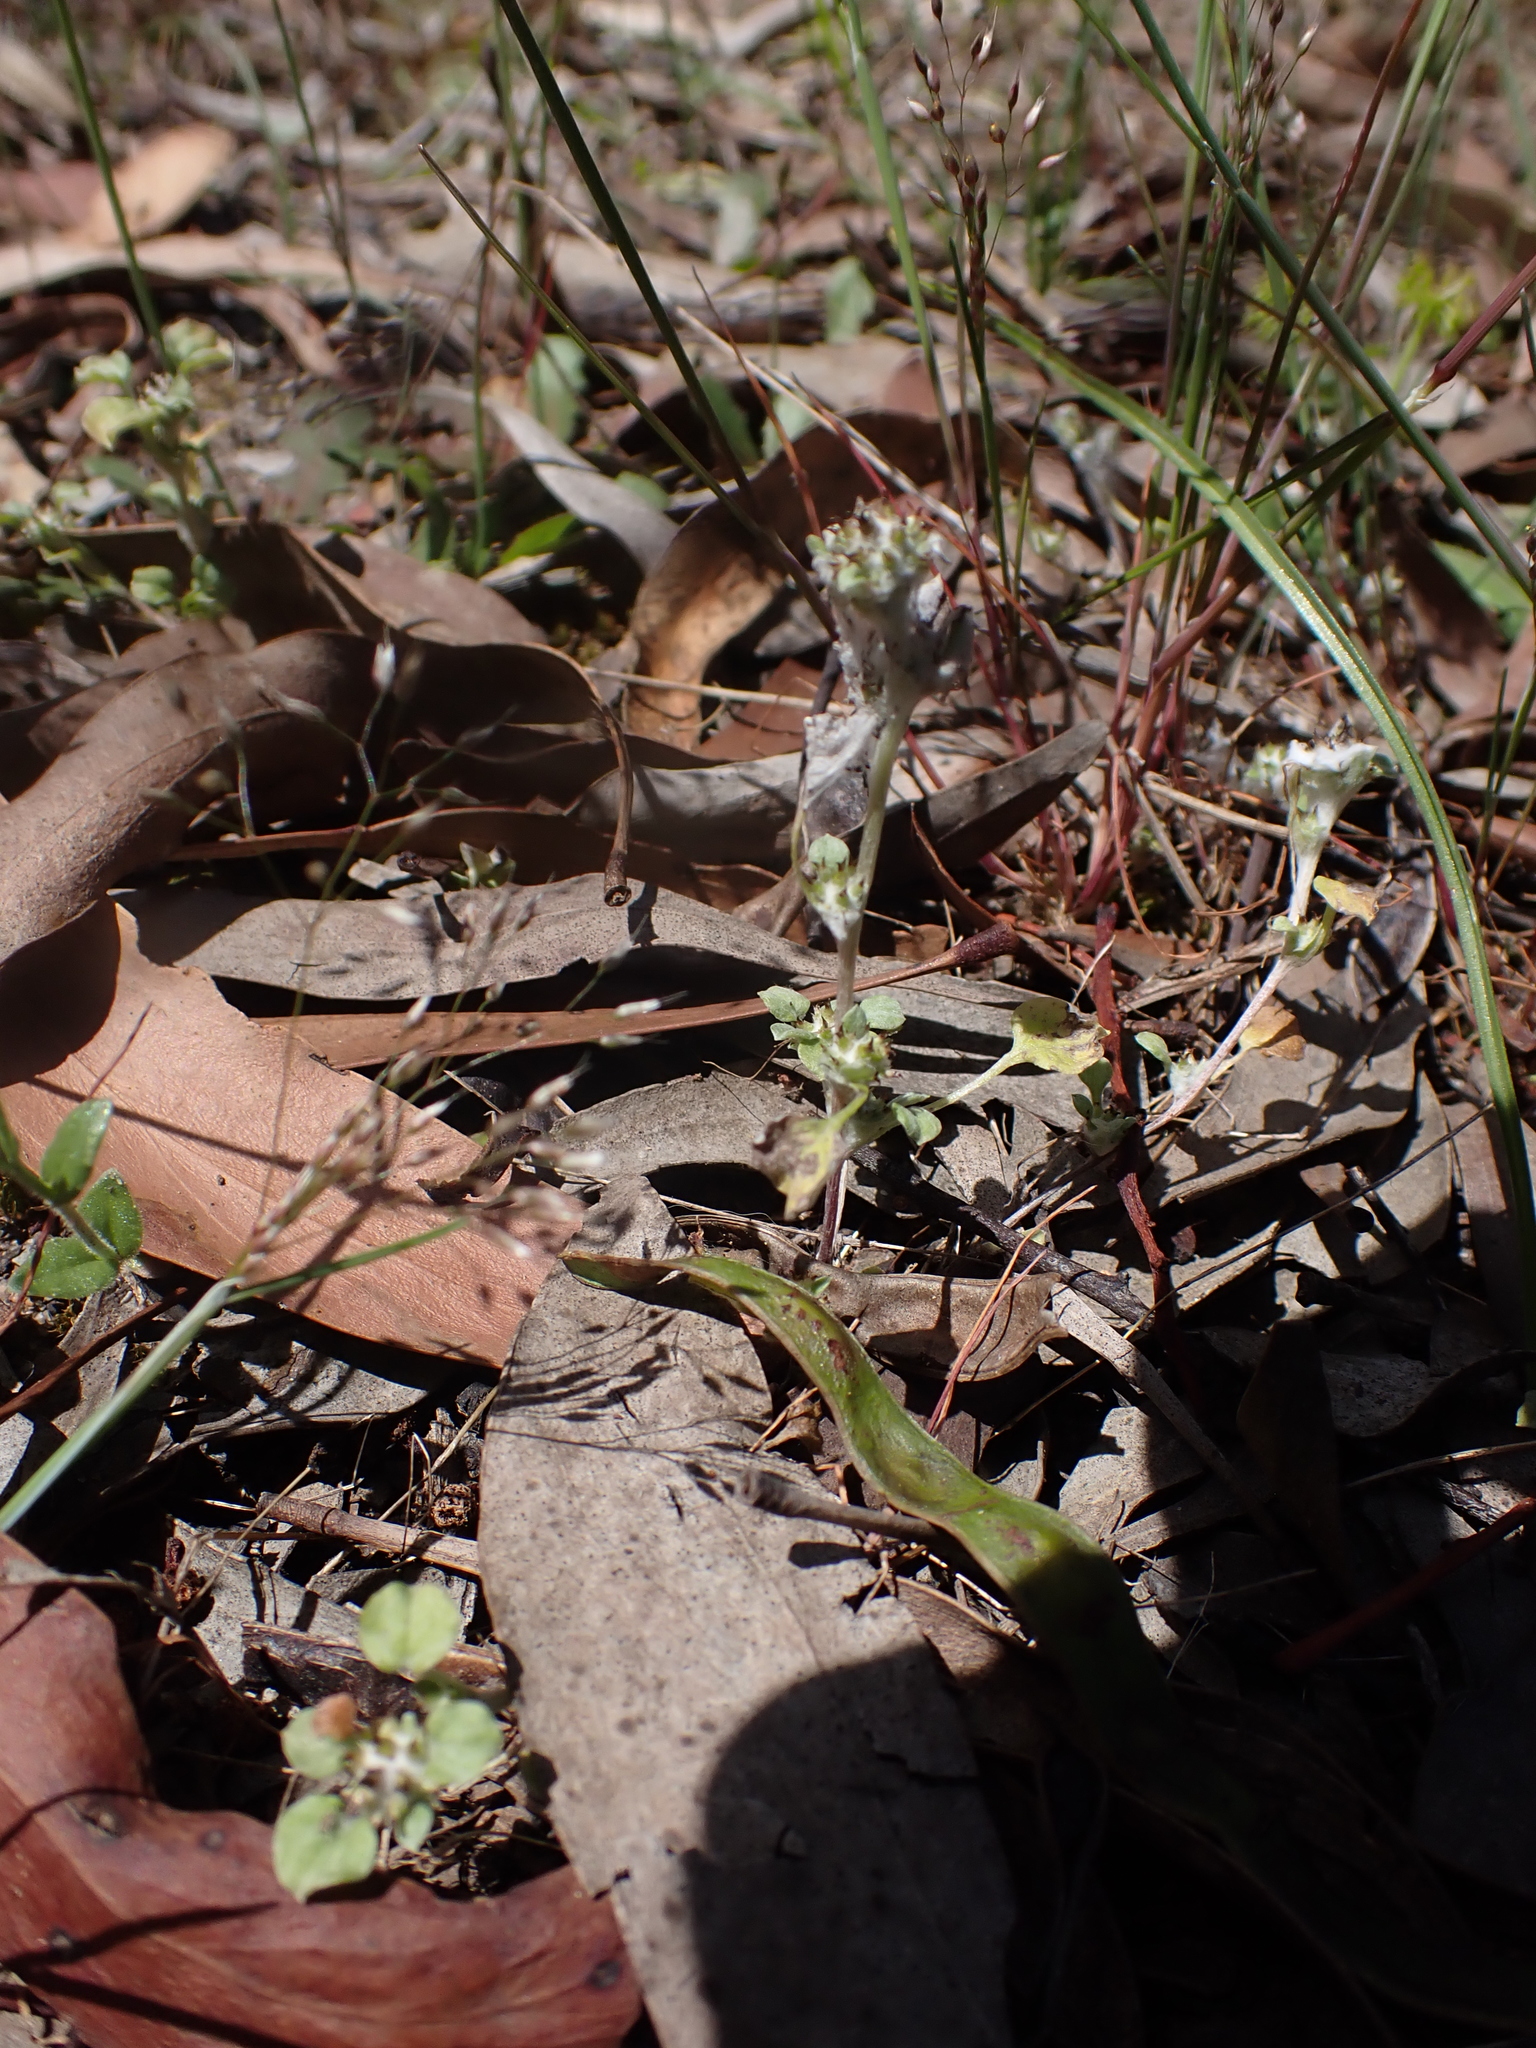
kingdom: Plantae
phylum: Tracheophyta
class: Magnoliopsida
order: Asterales
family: Asteraceae
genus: Stuartina
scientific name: Stuartina muelleri
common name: Spoon-leaved cudweed
